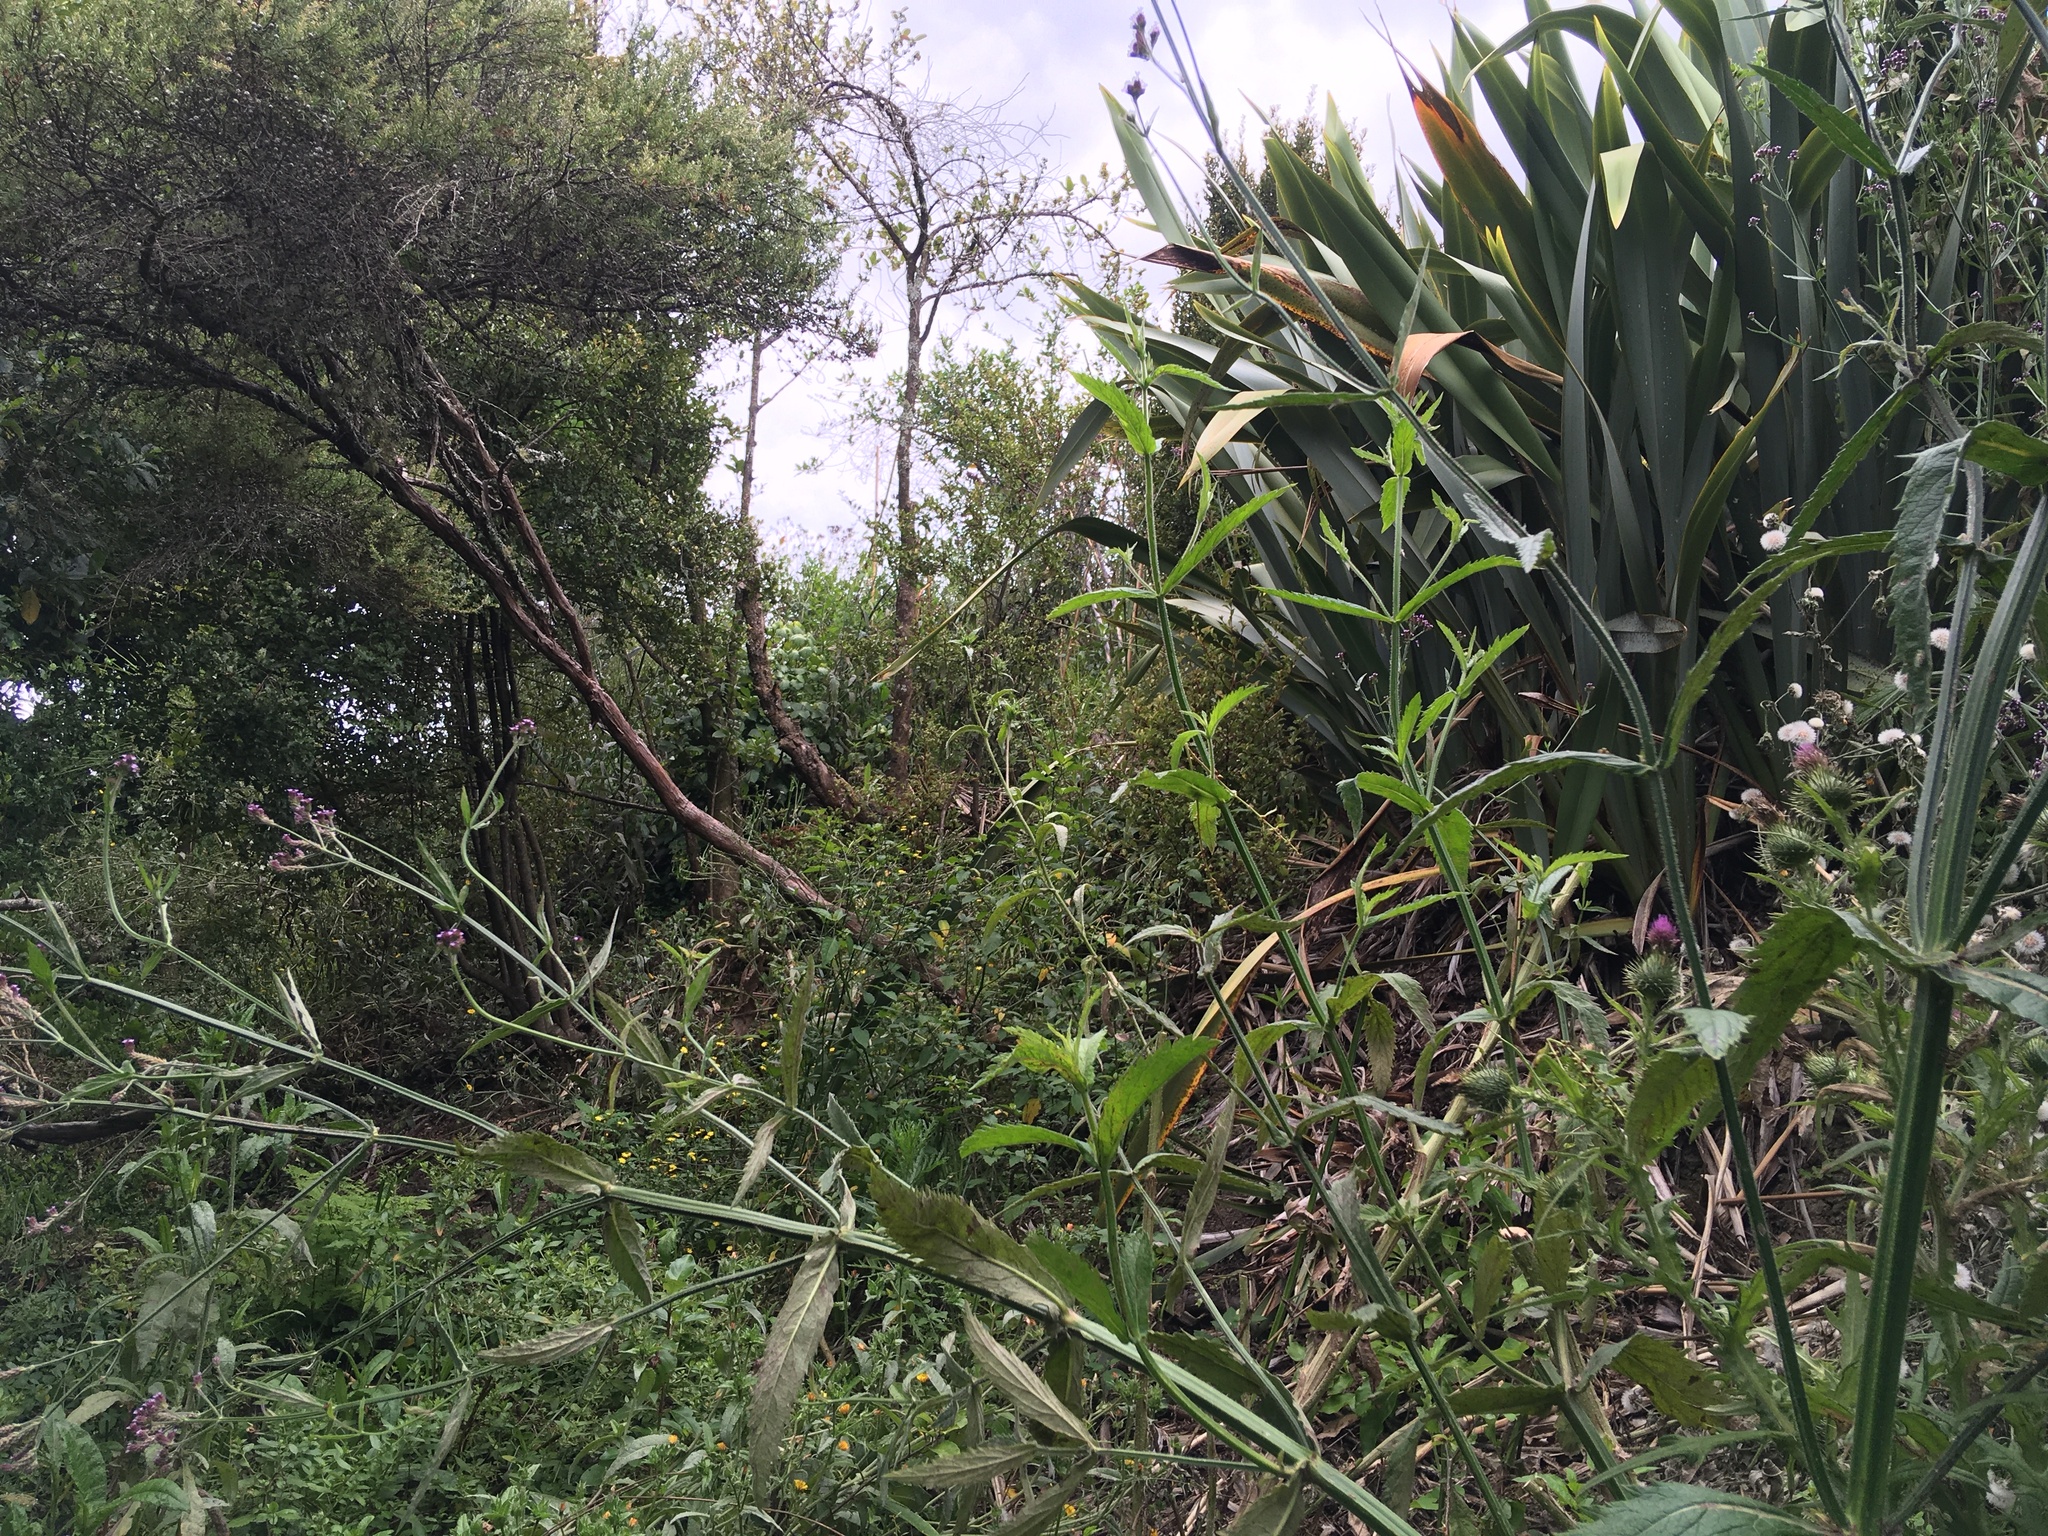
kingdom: Plantae
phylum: Tracheophyta
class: Magnoliopsida
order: Lamiales
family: Verbenaceae
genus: Verbena
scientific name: Verbena incompta
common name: Purpletop vervain
